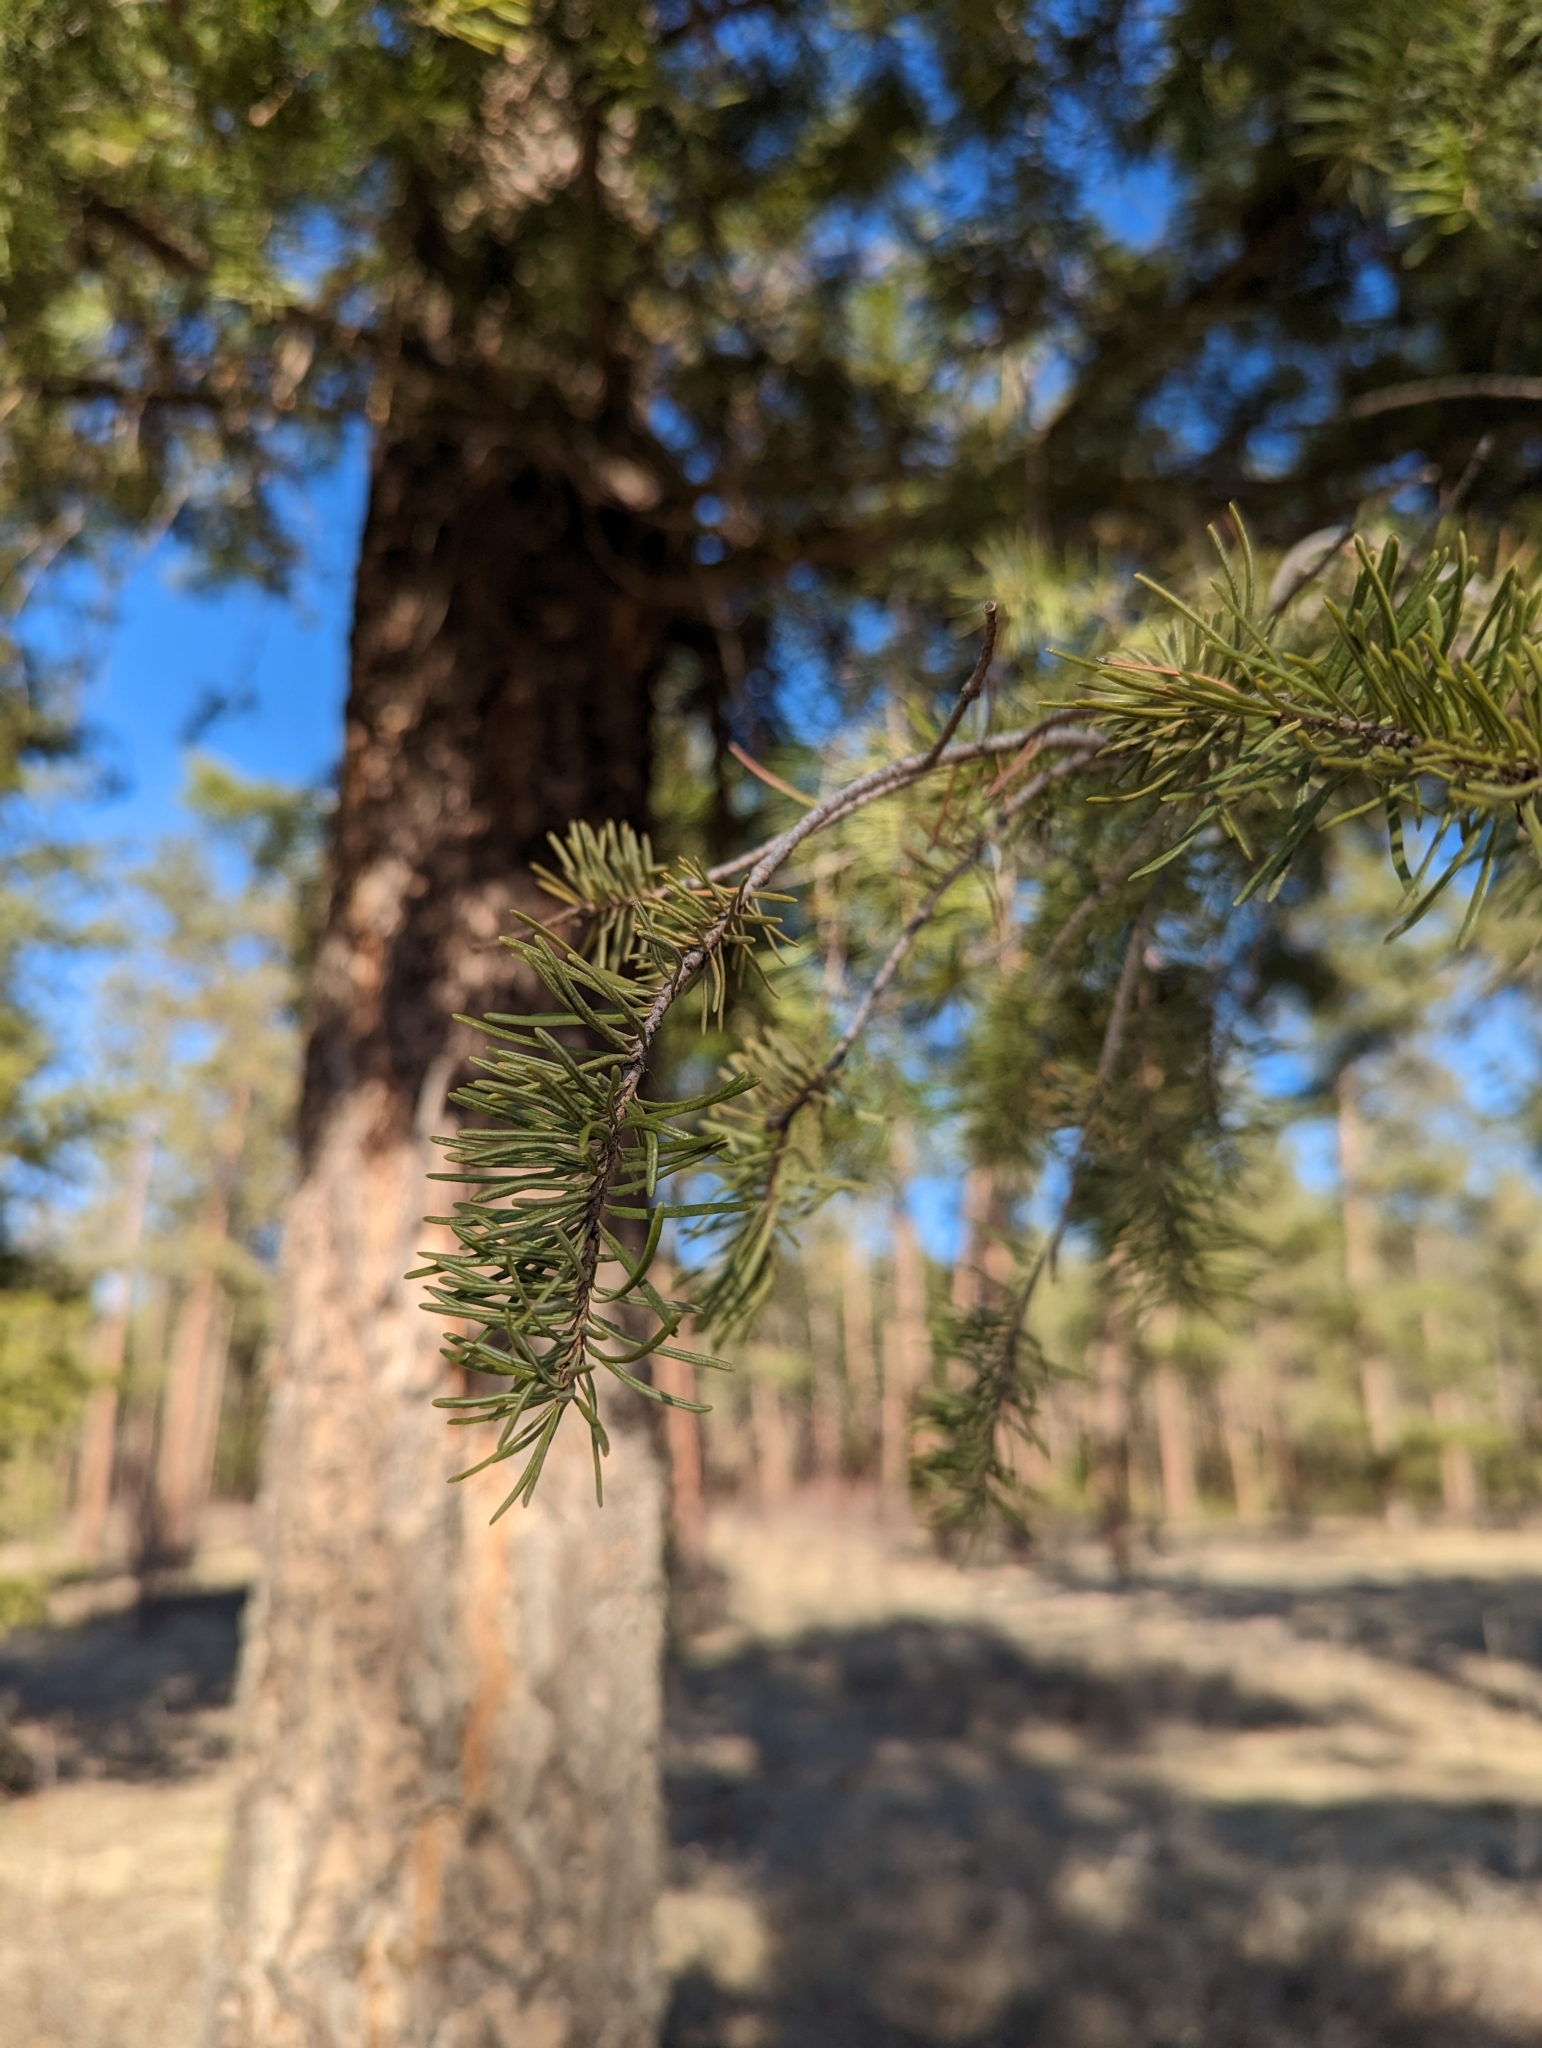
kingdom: Plantae
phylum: Tracheophyta
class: Pinopsida
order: Pinales
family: Pinaceae
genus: Pseudotsuga
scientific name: Pseudotsuga menziesii
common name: Douglas fir
